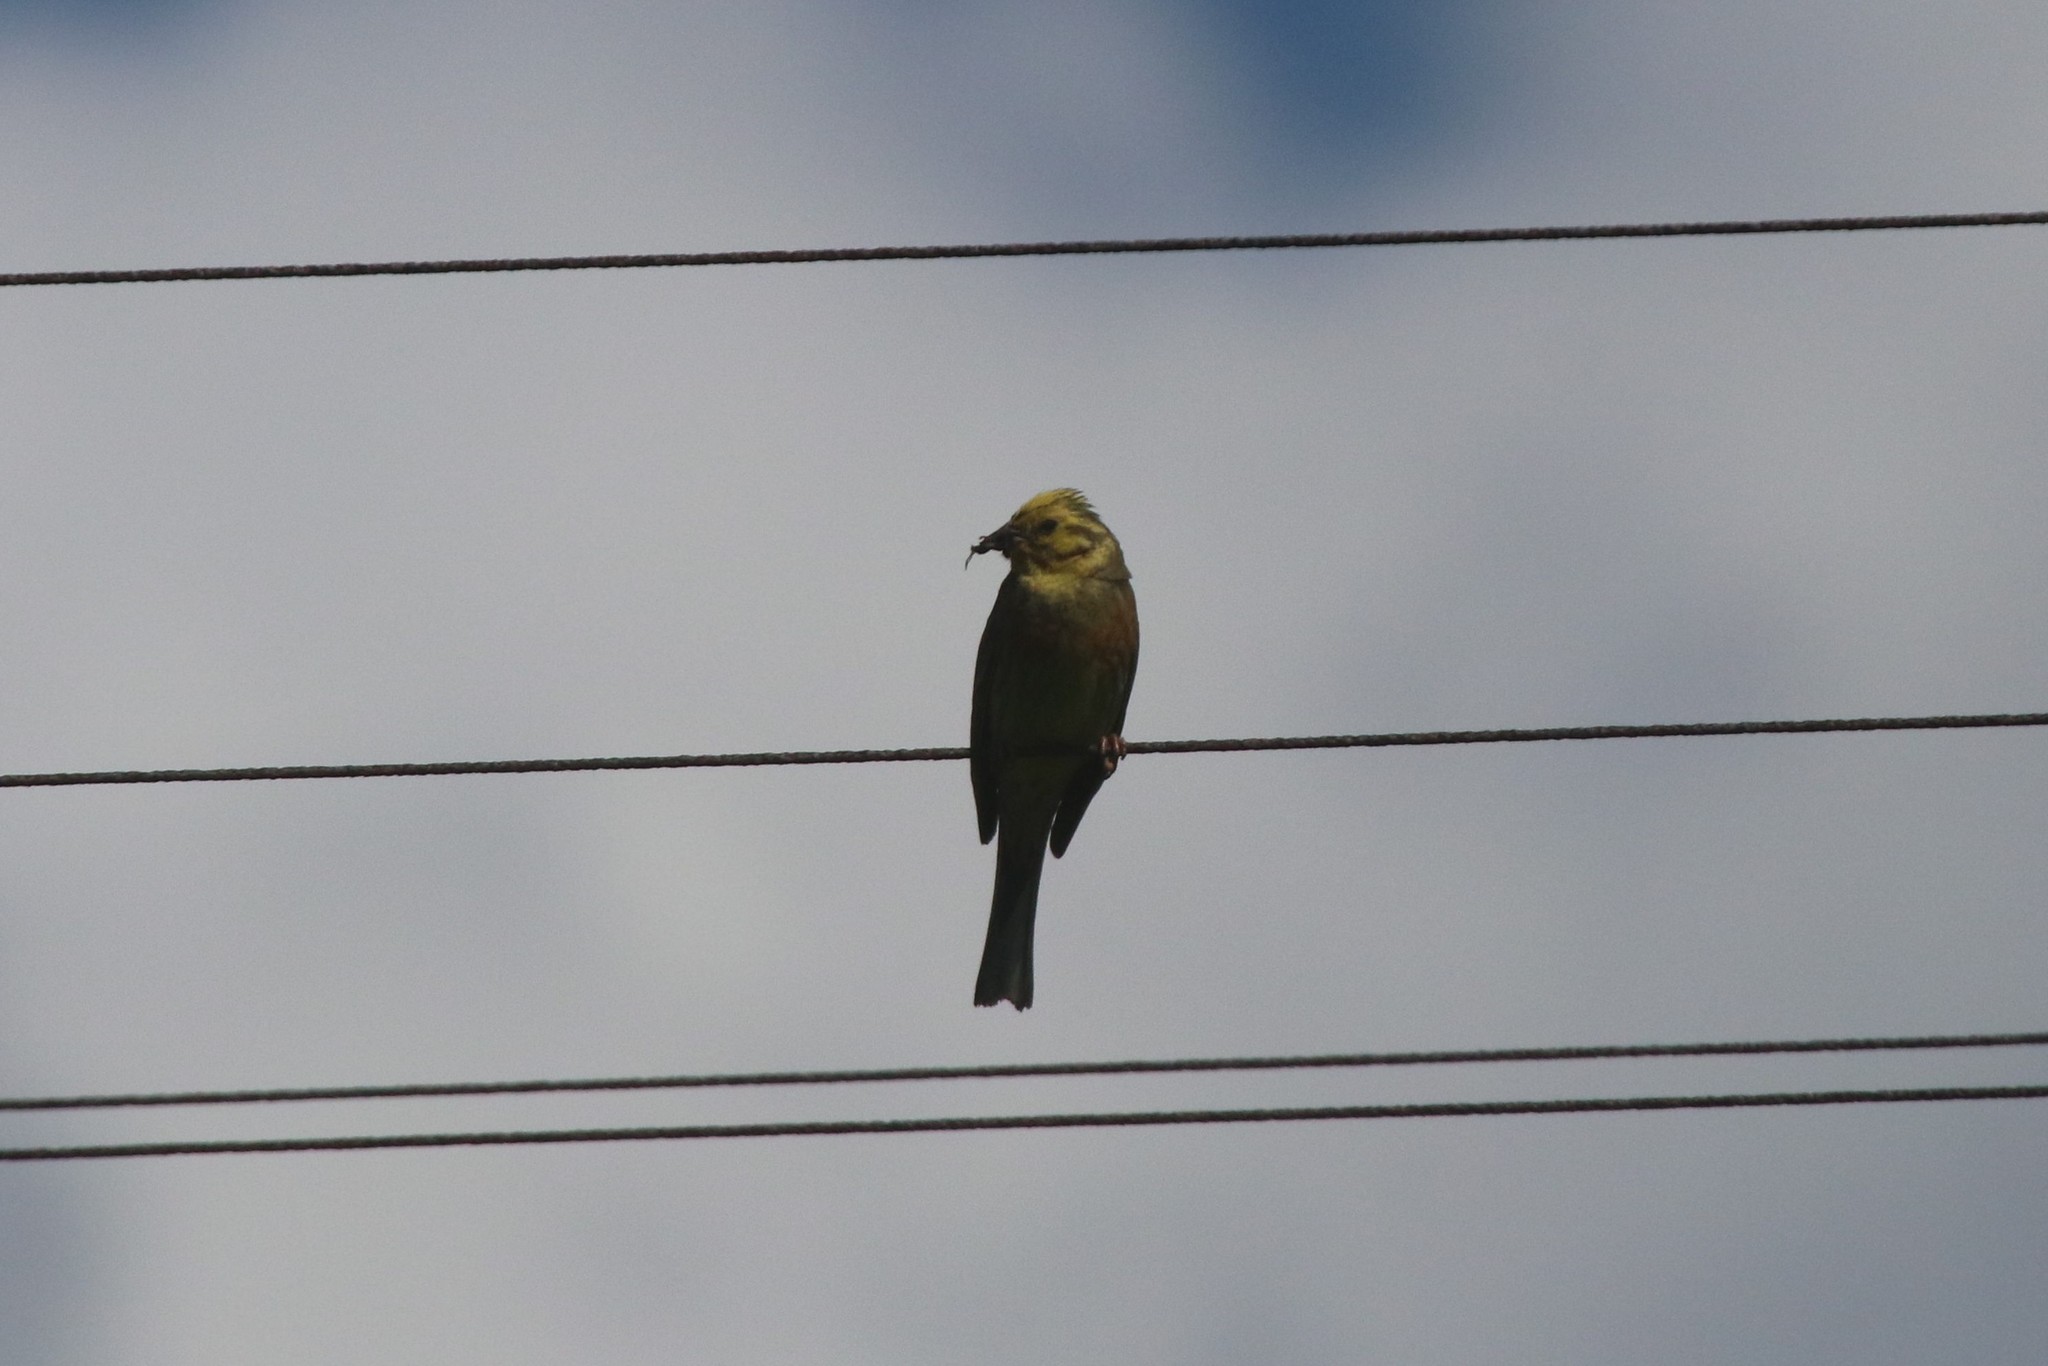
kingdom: Animalia
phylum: Chordata
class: Aves
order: Passeriformes
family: Emberizidae
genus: Emberiza
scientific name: Emberiza citrinella
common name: Yellowhammer
